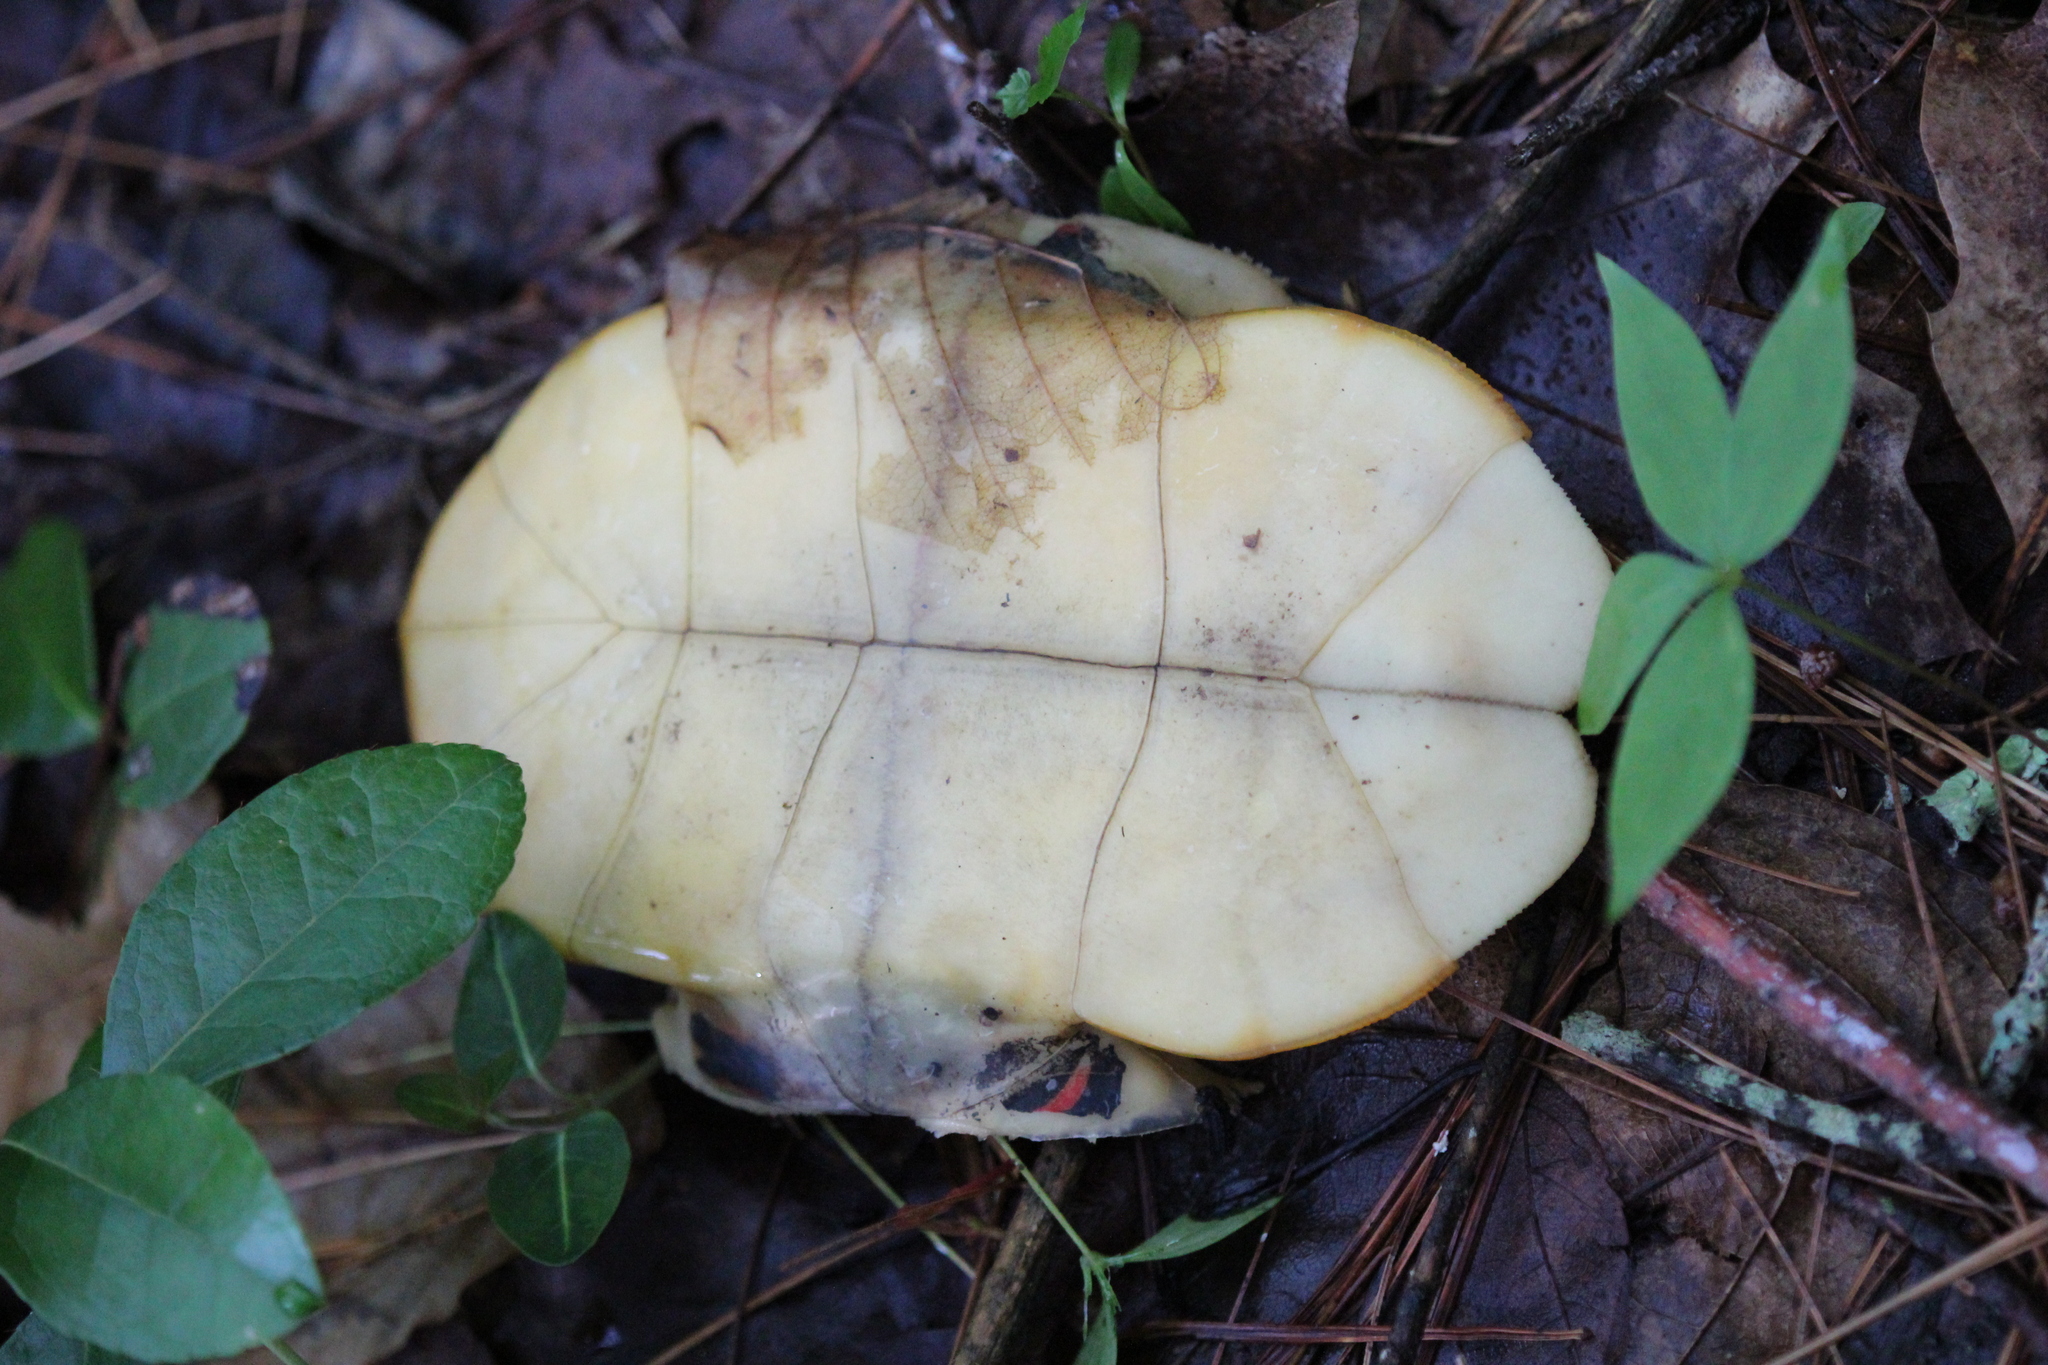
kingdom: Animalia
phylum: Chordata
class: Testudines
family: Emydidae
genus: Chrysemys
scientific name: Chrysemys picta
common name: Painted turtle
